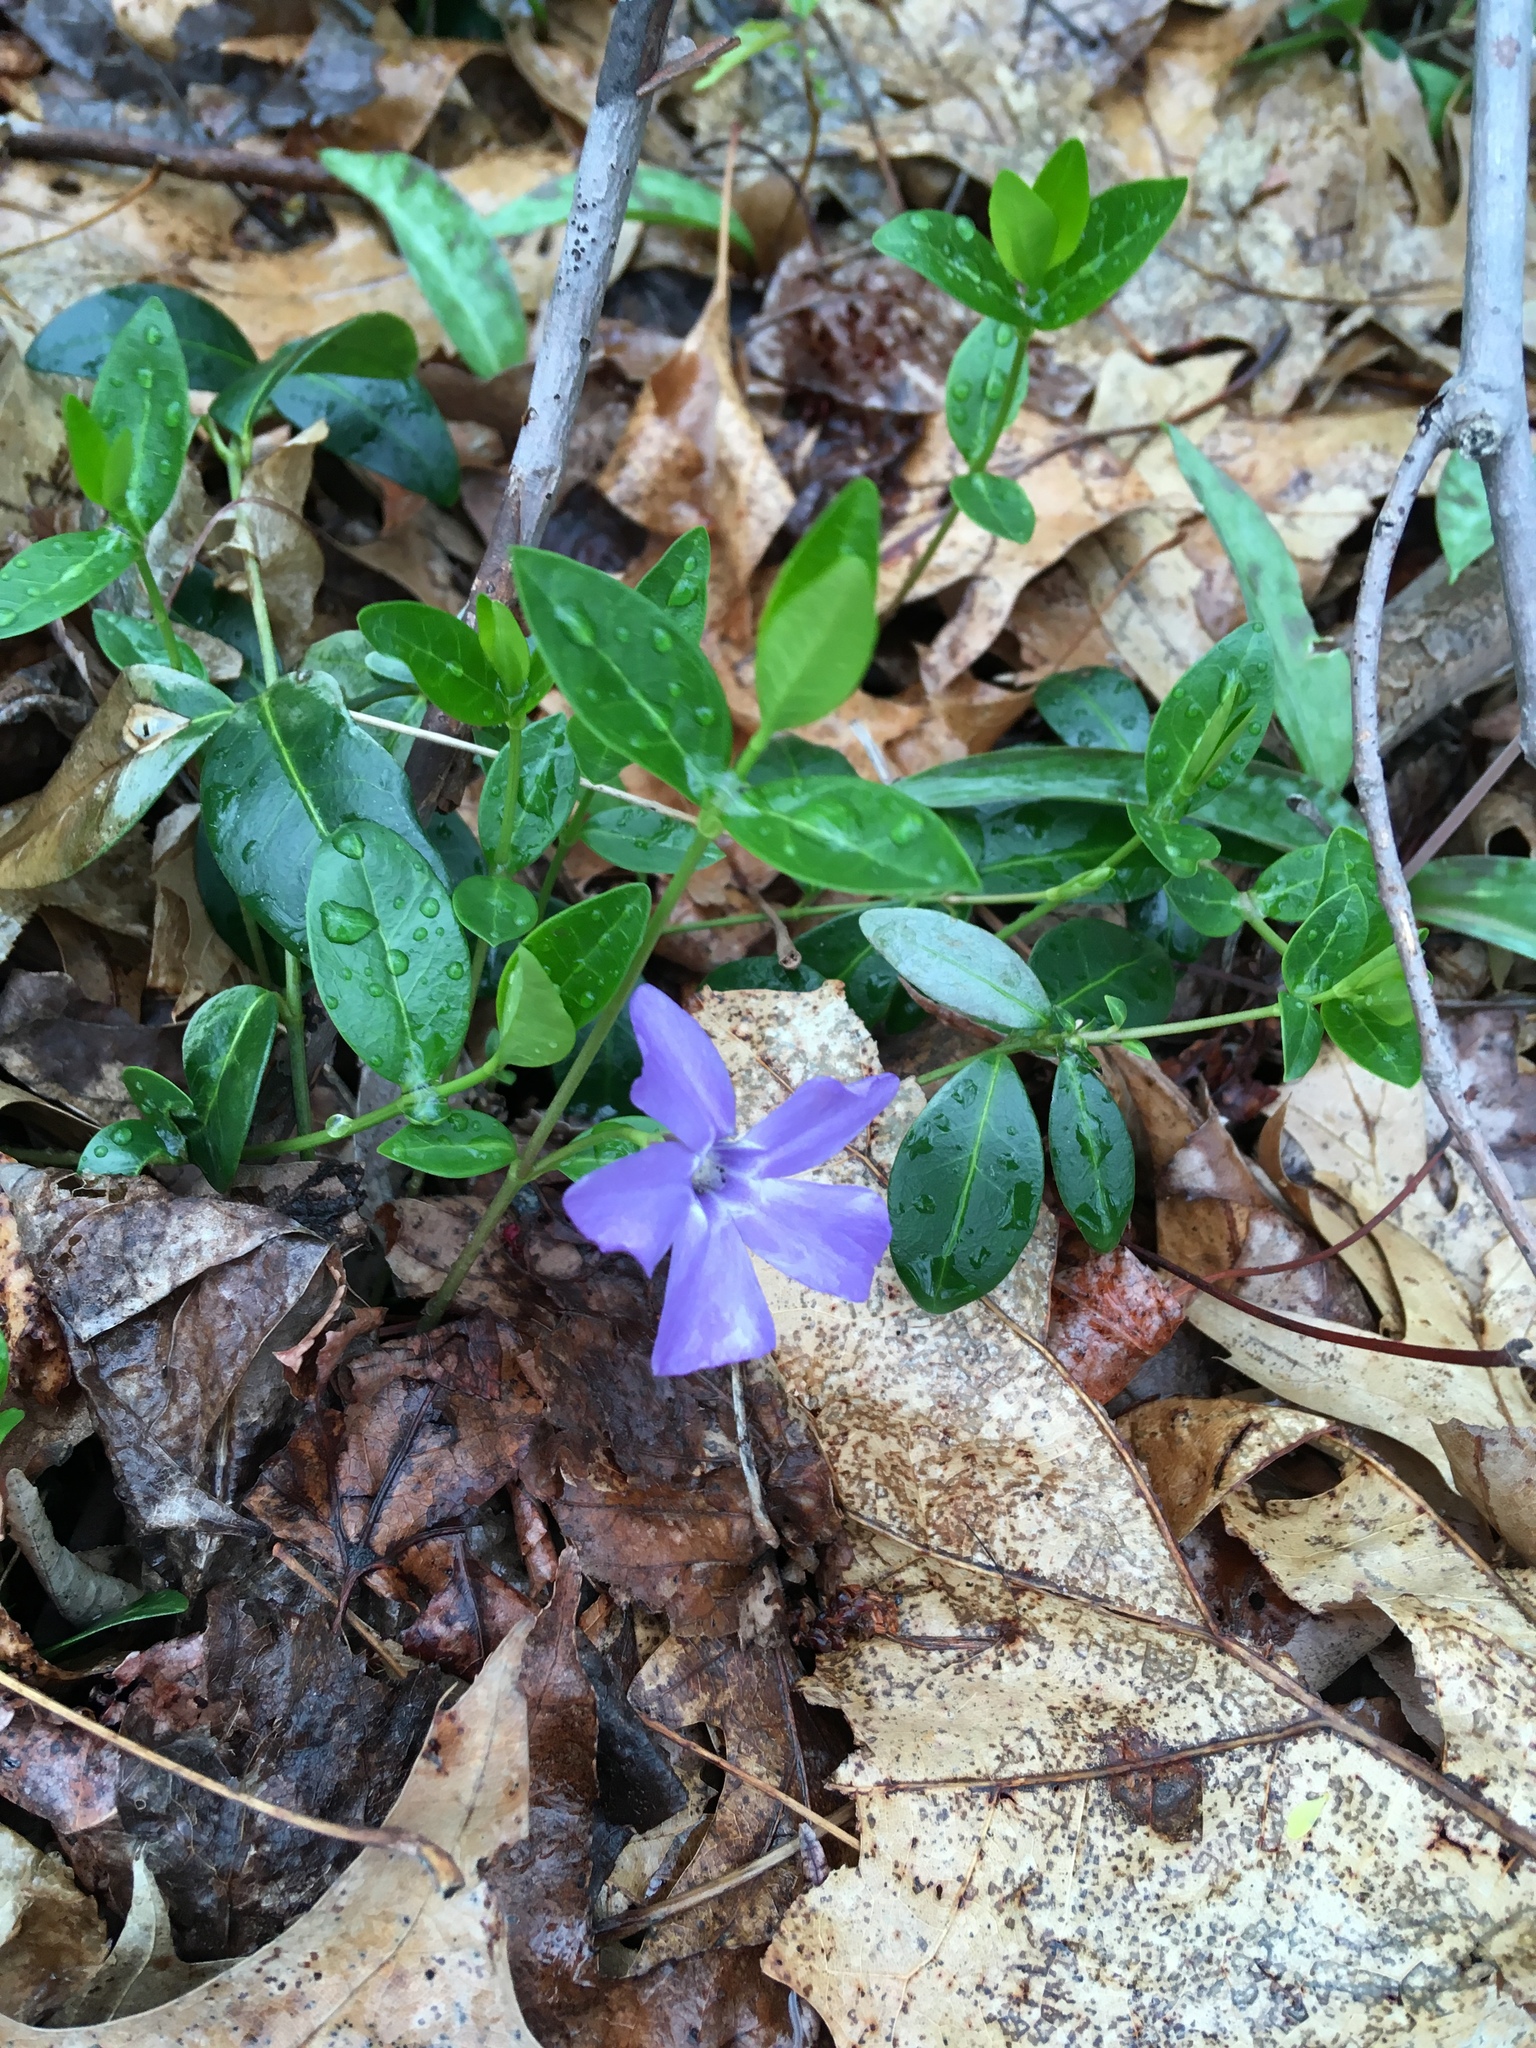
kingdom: Plantae
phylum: Tracheophyta
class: Magnoliopsida
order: Gentianales
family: Apocynaceae
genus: Vinca
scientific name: Vinca minor
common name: Lesser periwinkle
